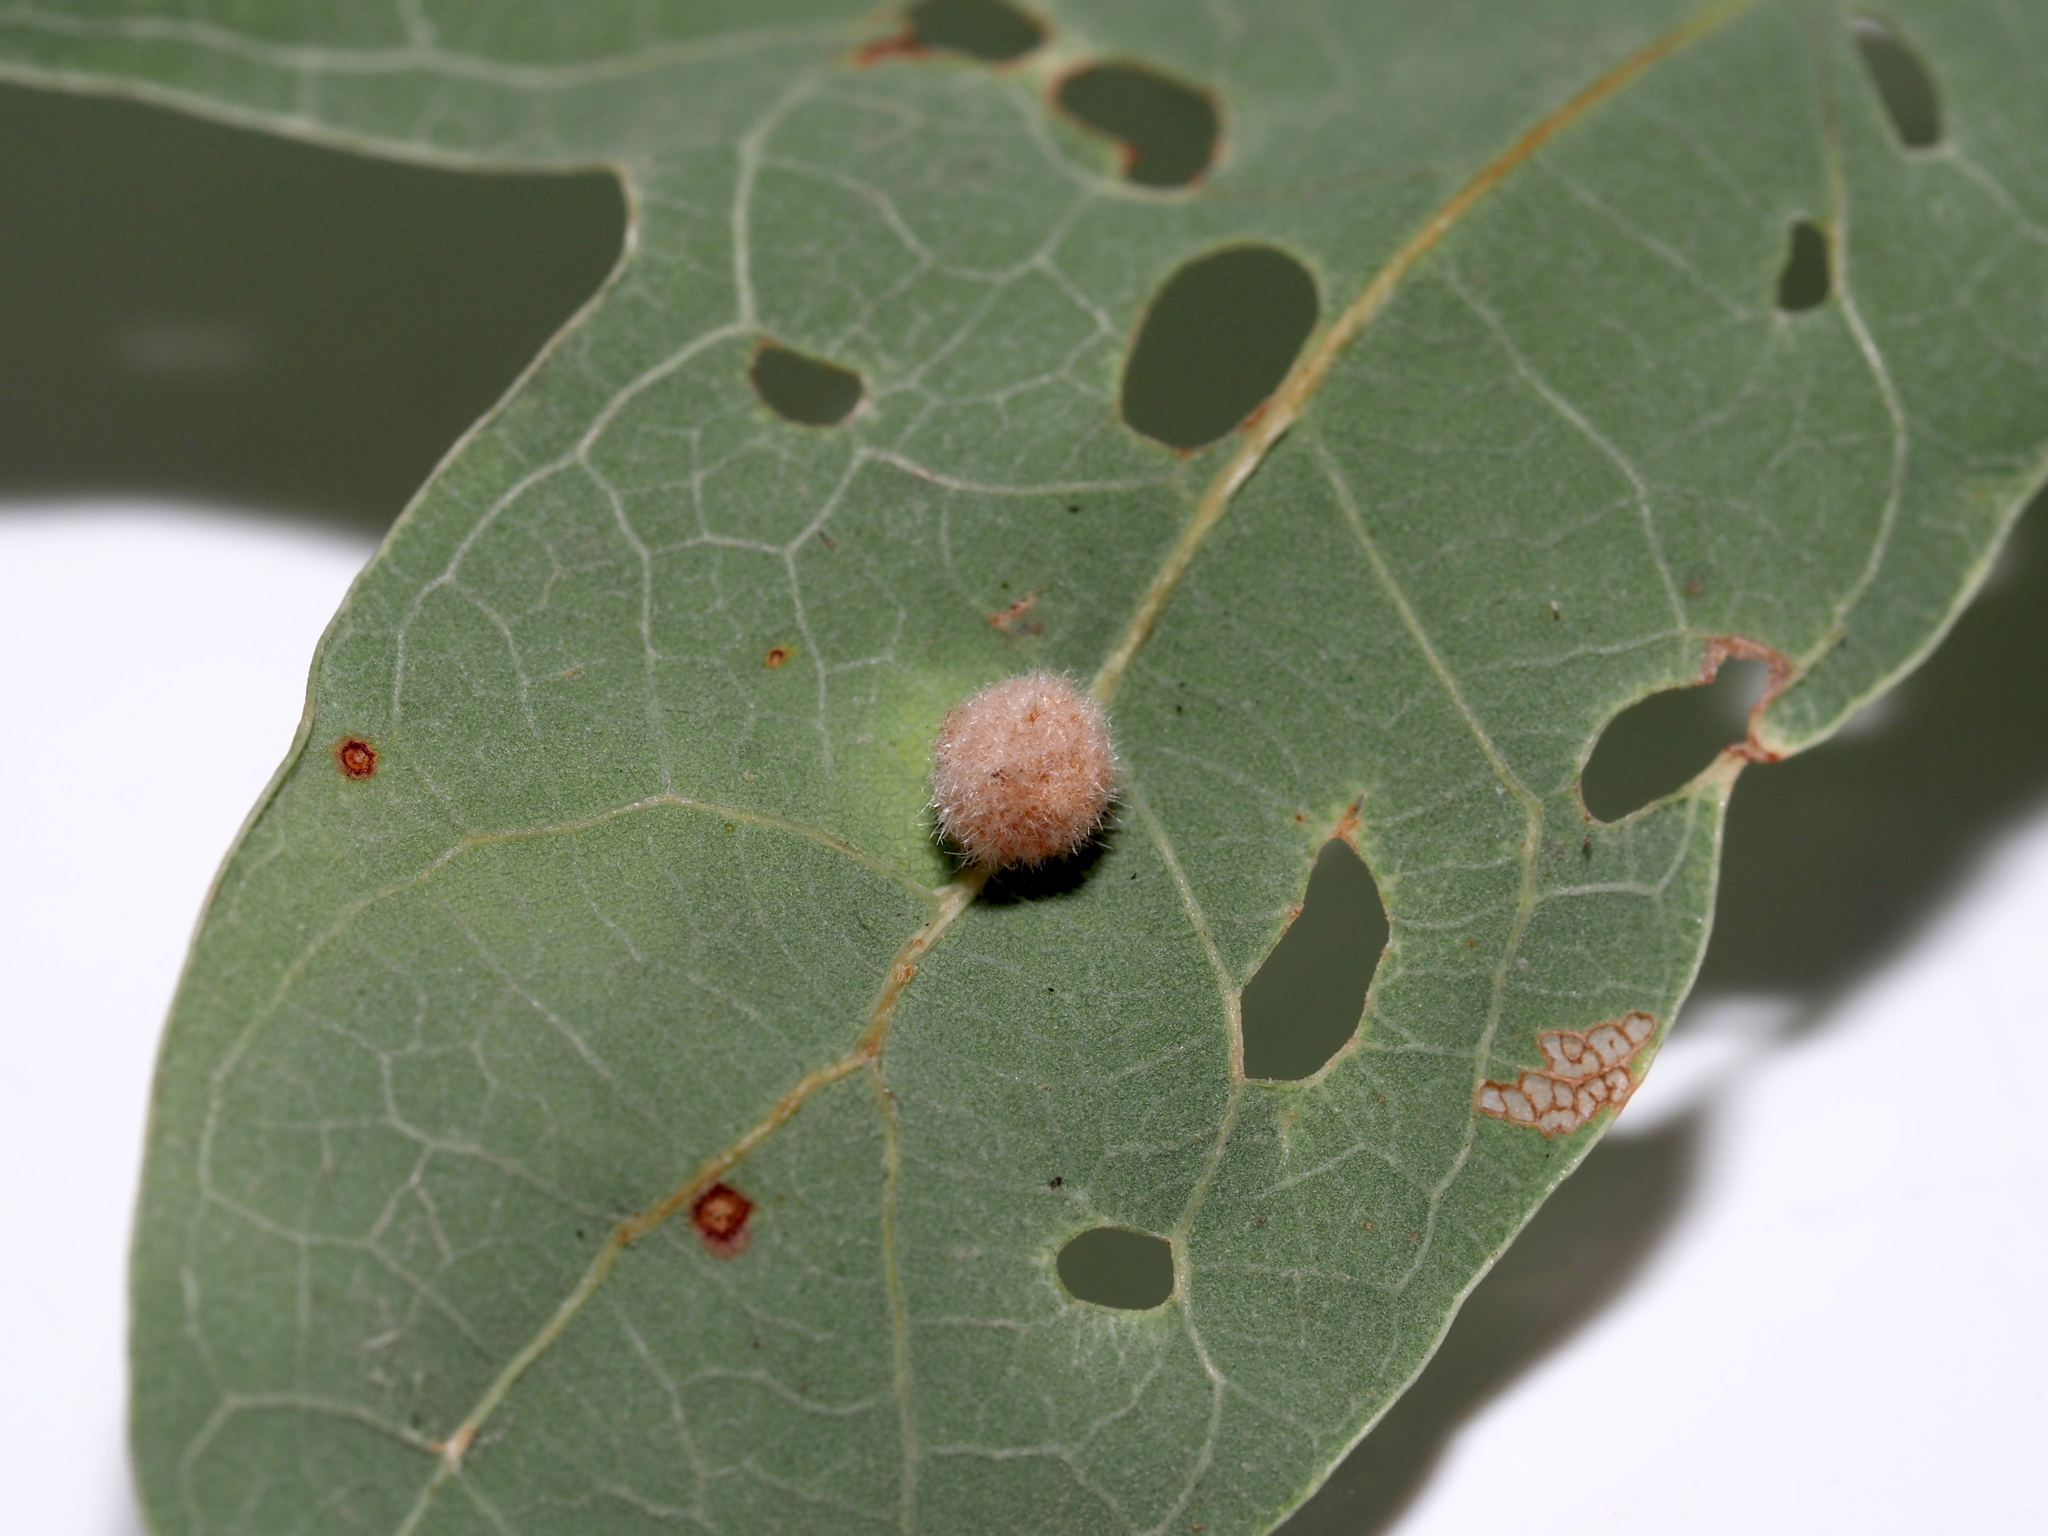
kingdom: Animalia
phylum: Arthropoda
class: Insecta
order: Hymenoptera
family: Cynipidae
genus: Philonix
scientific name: Philonix fulvicollis
